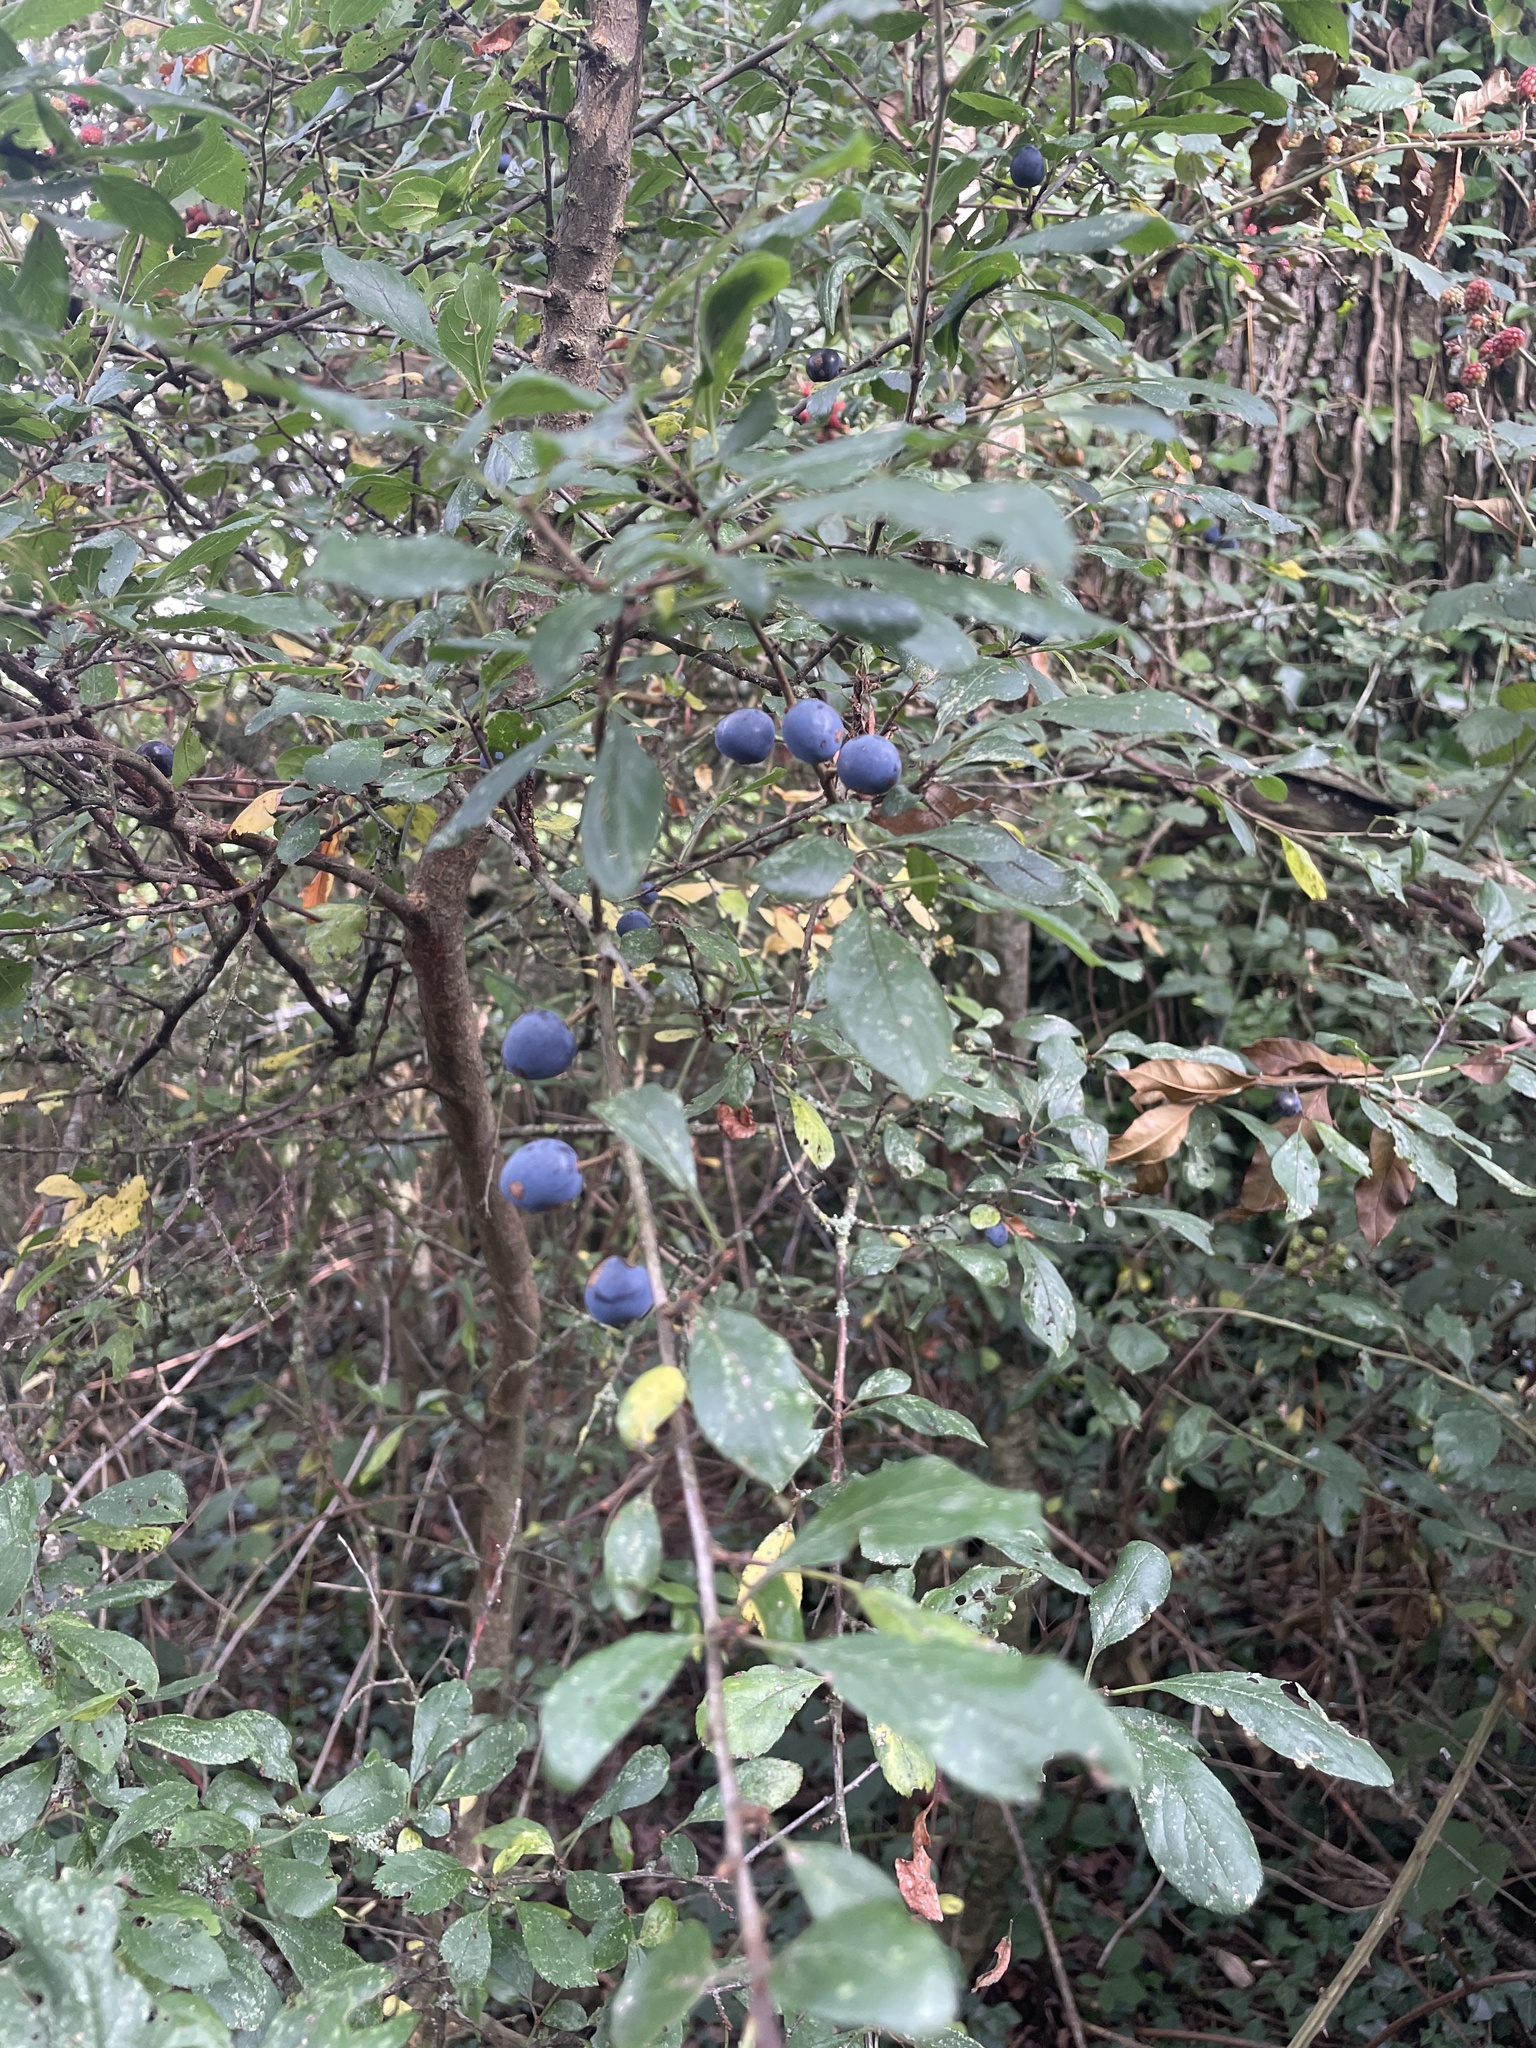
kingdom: Plantae
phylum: Tracheophyta
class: Magnoliopsida
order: Rosales
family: Rosaceae
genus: Prunus
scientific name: Prunus spinosa
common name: Blackthorn
